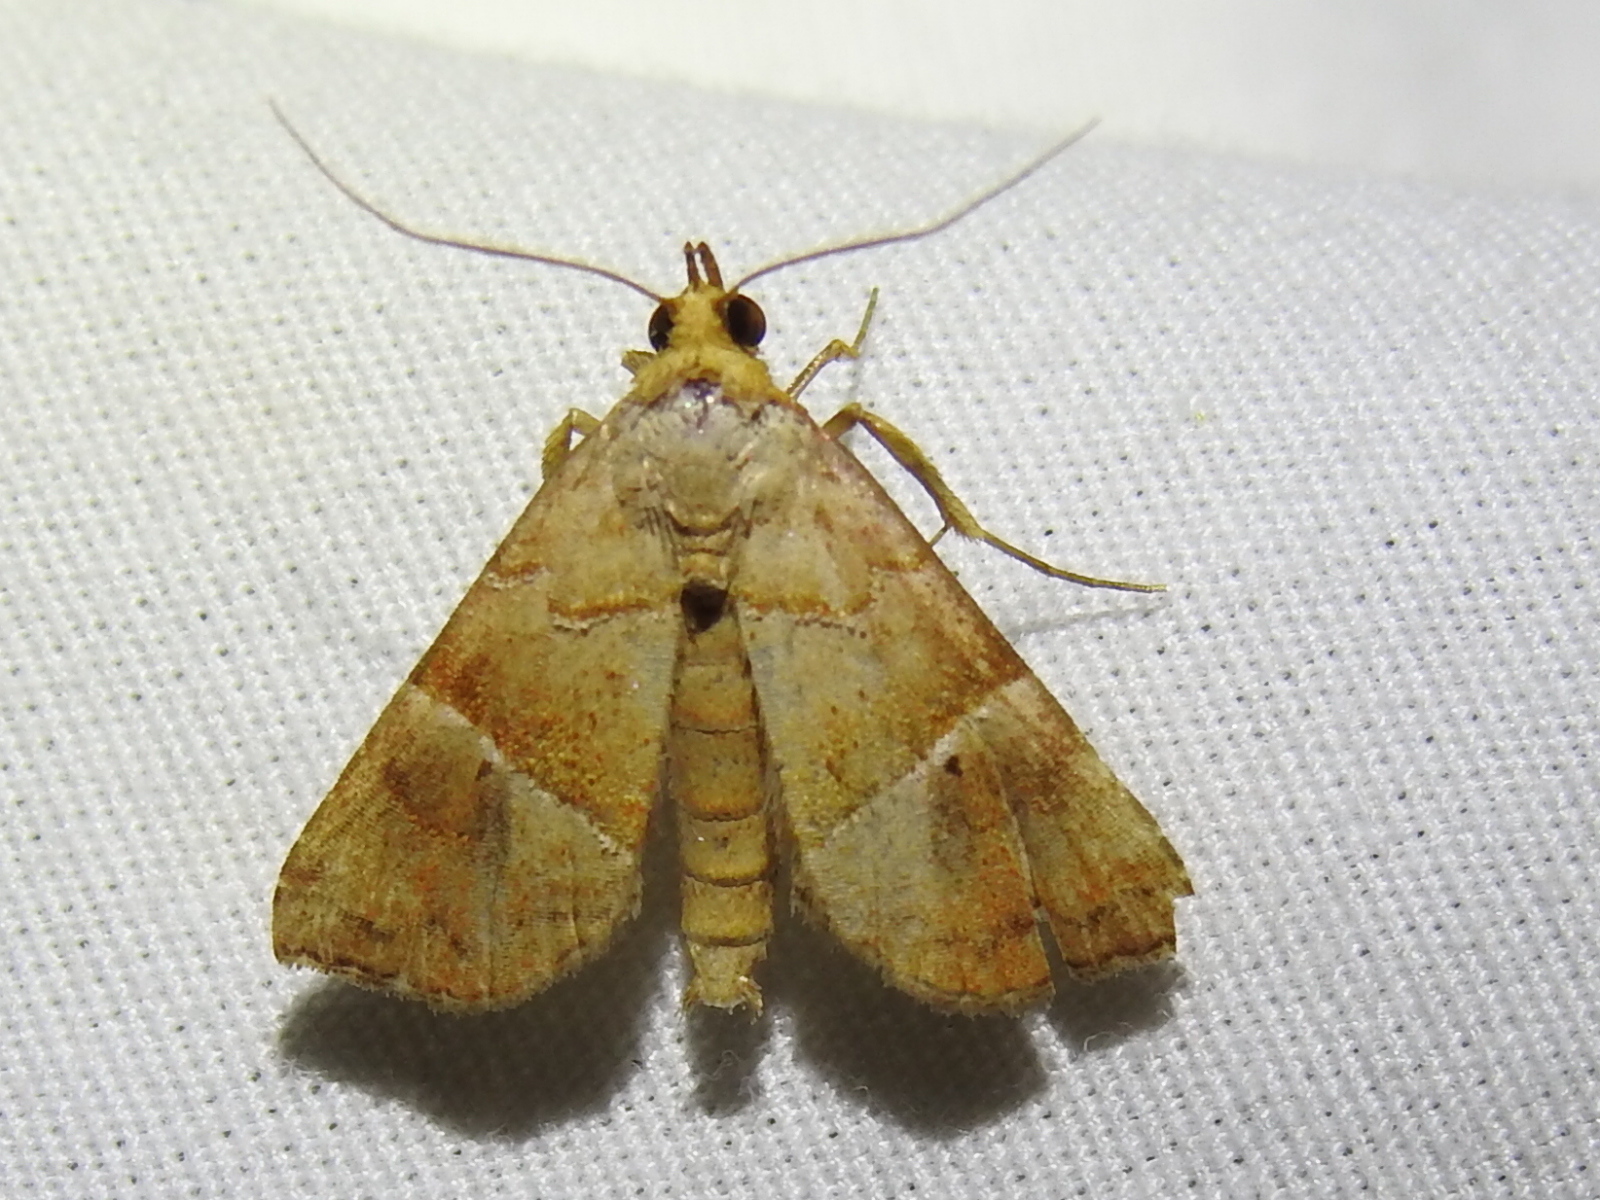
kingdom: Animalia
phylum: Arthropoda
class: Insecta
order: Lepidoptera
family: Erebidae
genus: Cecharismena
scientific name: Cecharismena jalapena
